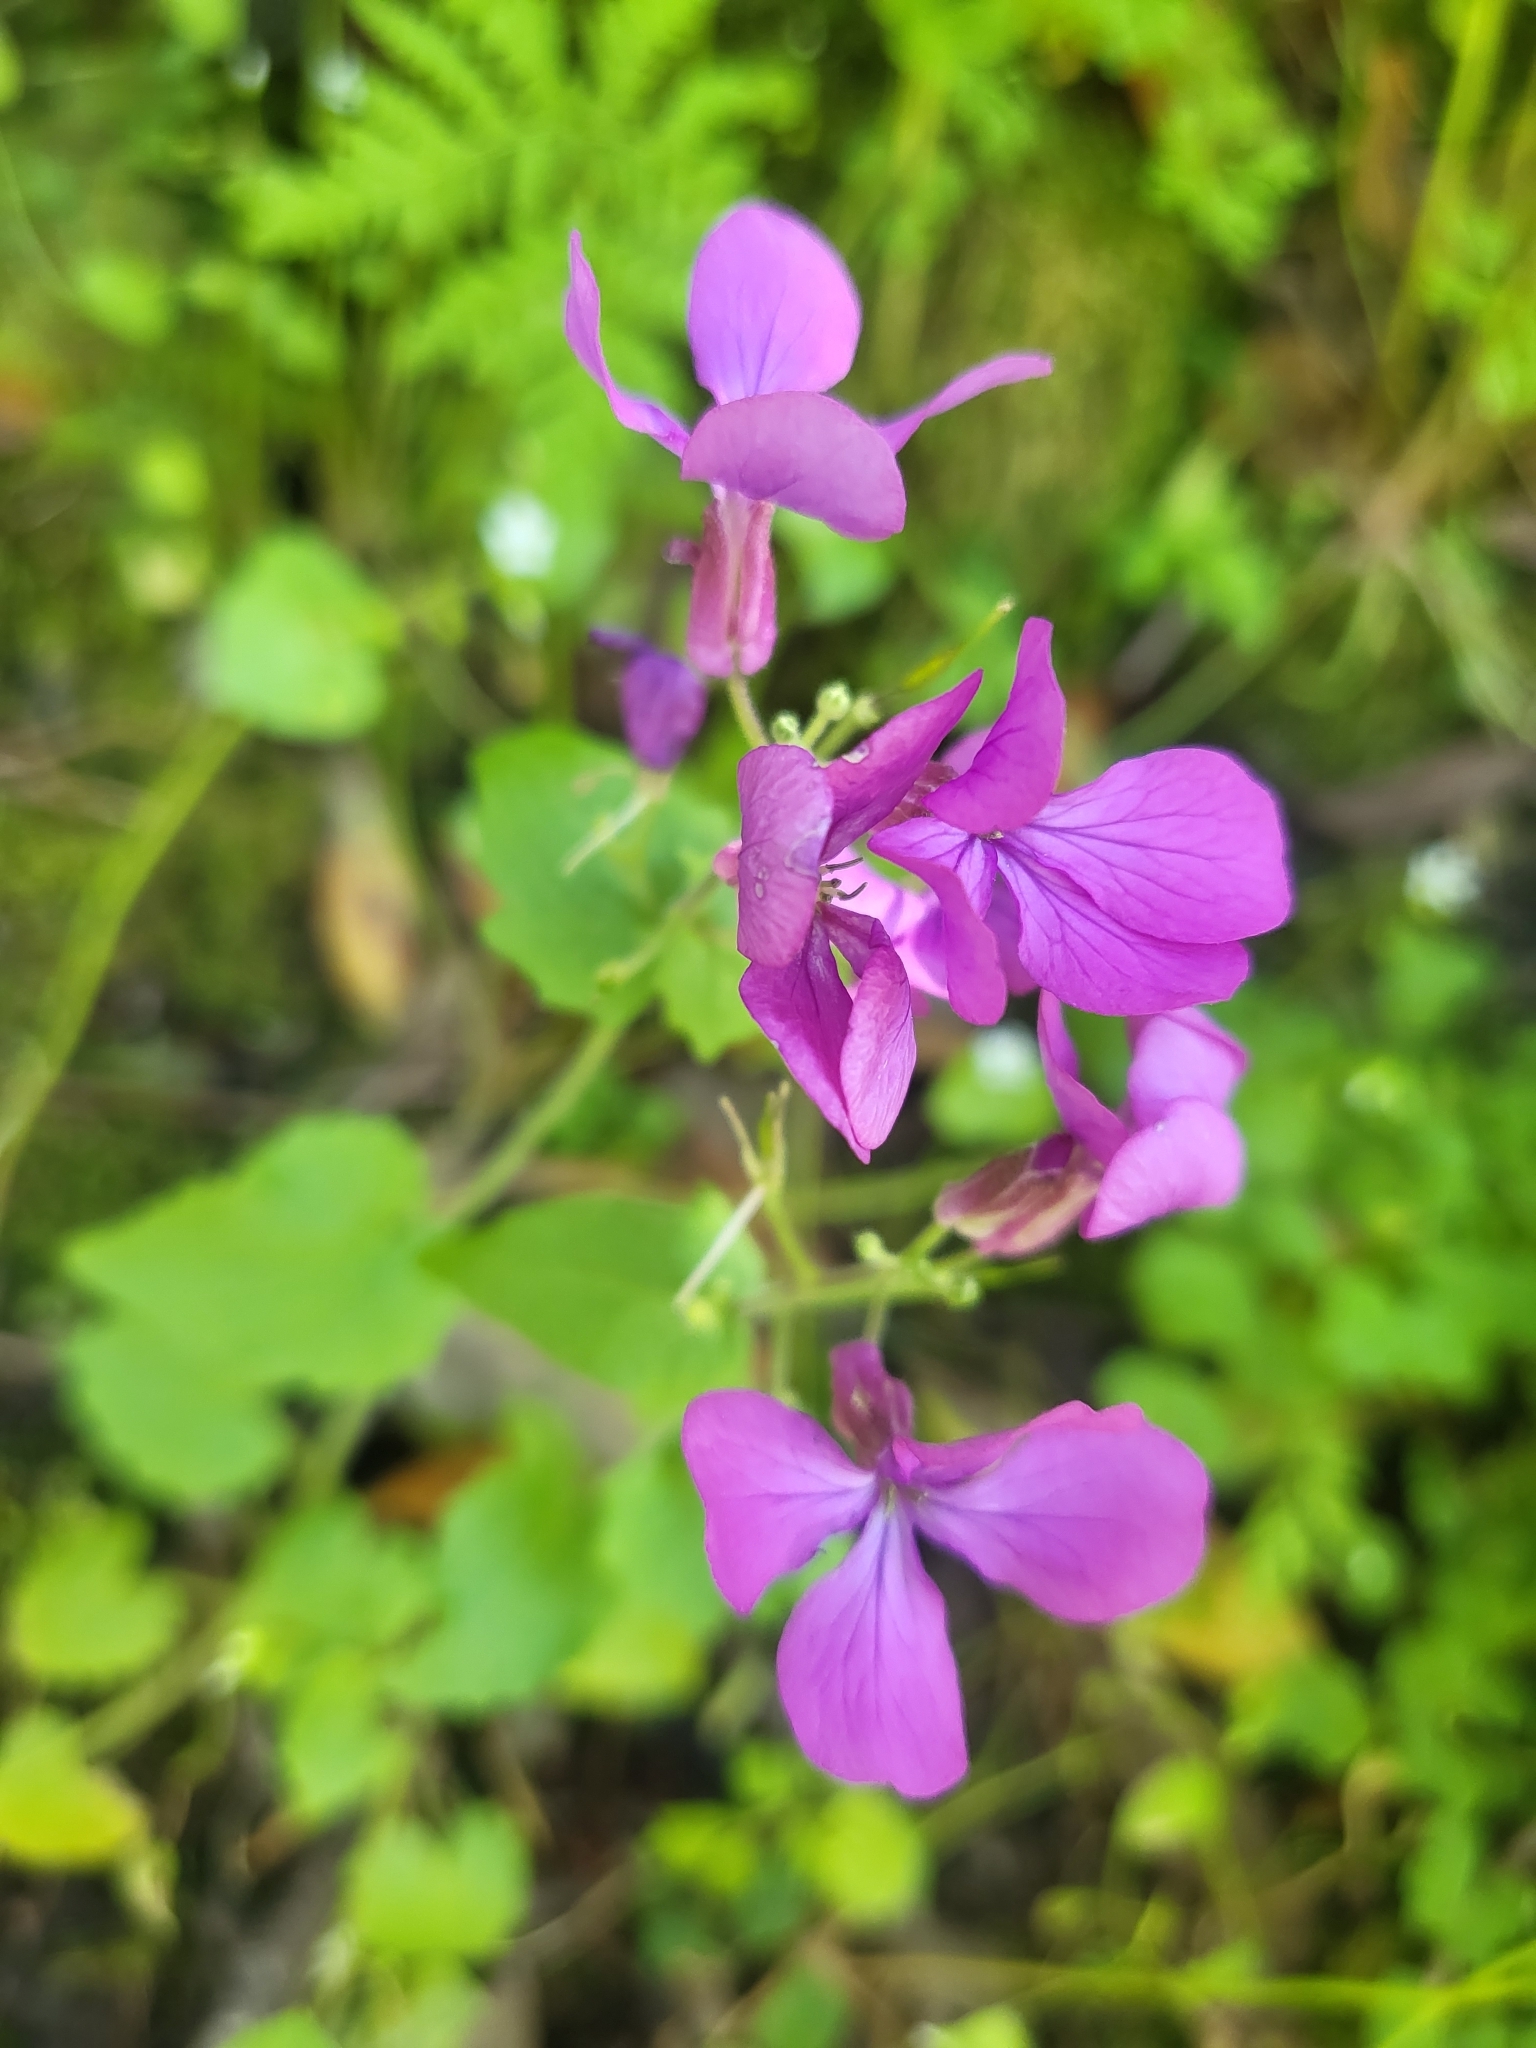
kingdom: Plantae
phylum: Tracheophyta
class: Magnoliopsida
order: Brassicales
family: Brassicaceae
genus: Lunaria
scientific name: Lunaria annua
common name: Honesty
